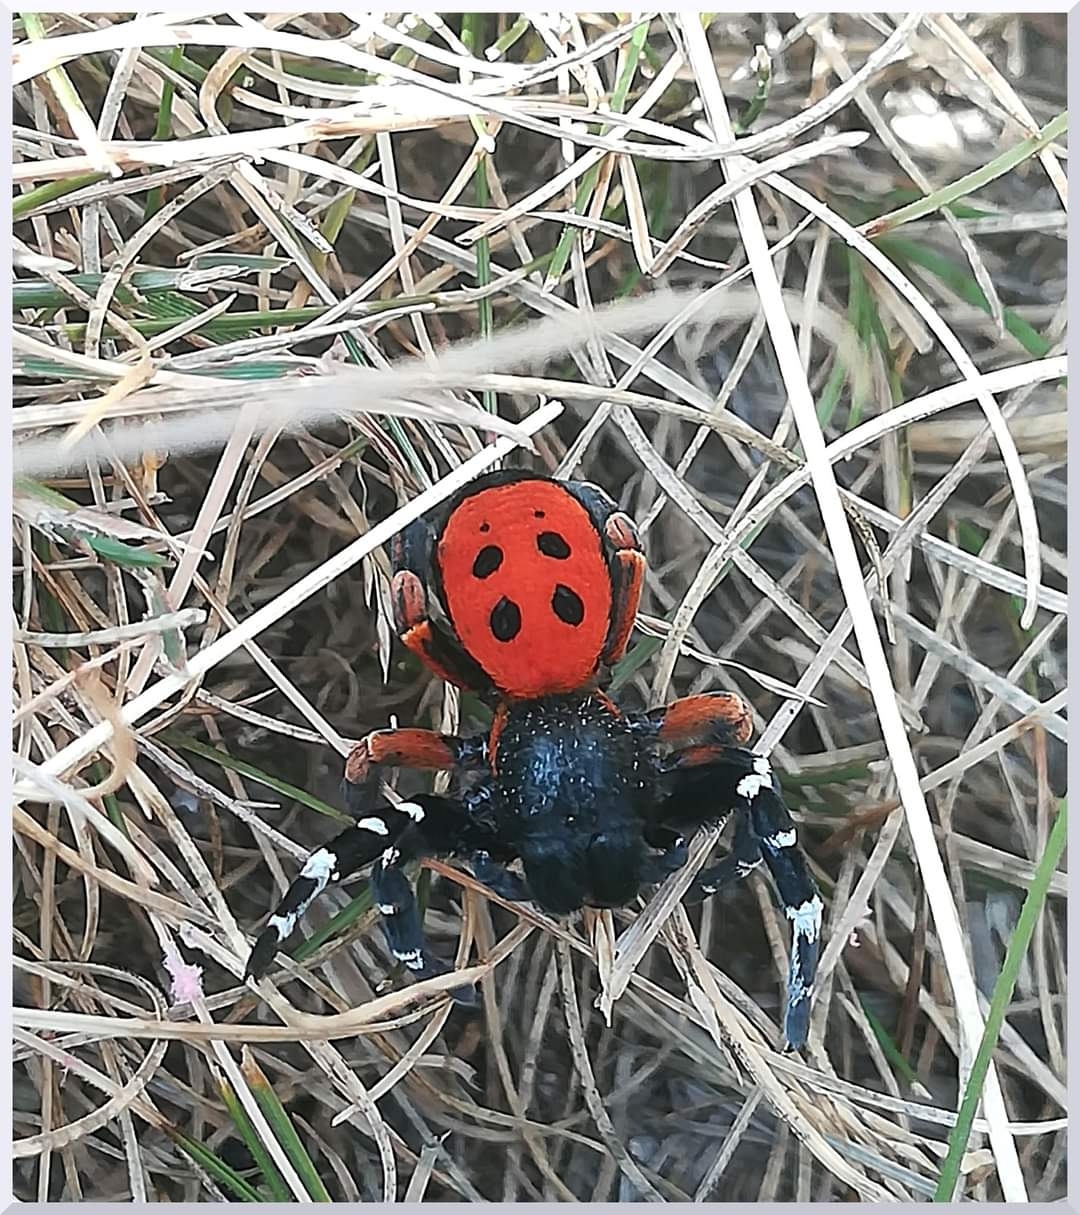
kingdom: Animalia
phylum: Arthropoda
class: Arachnida
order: Araneae
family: Eresidae
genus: Eresus
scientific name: Eresus kollari
